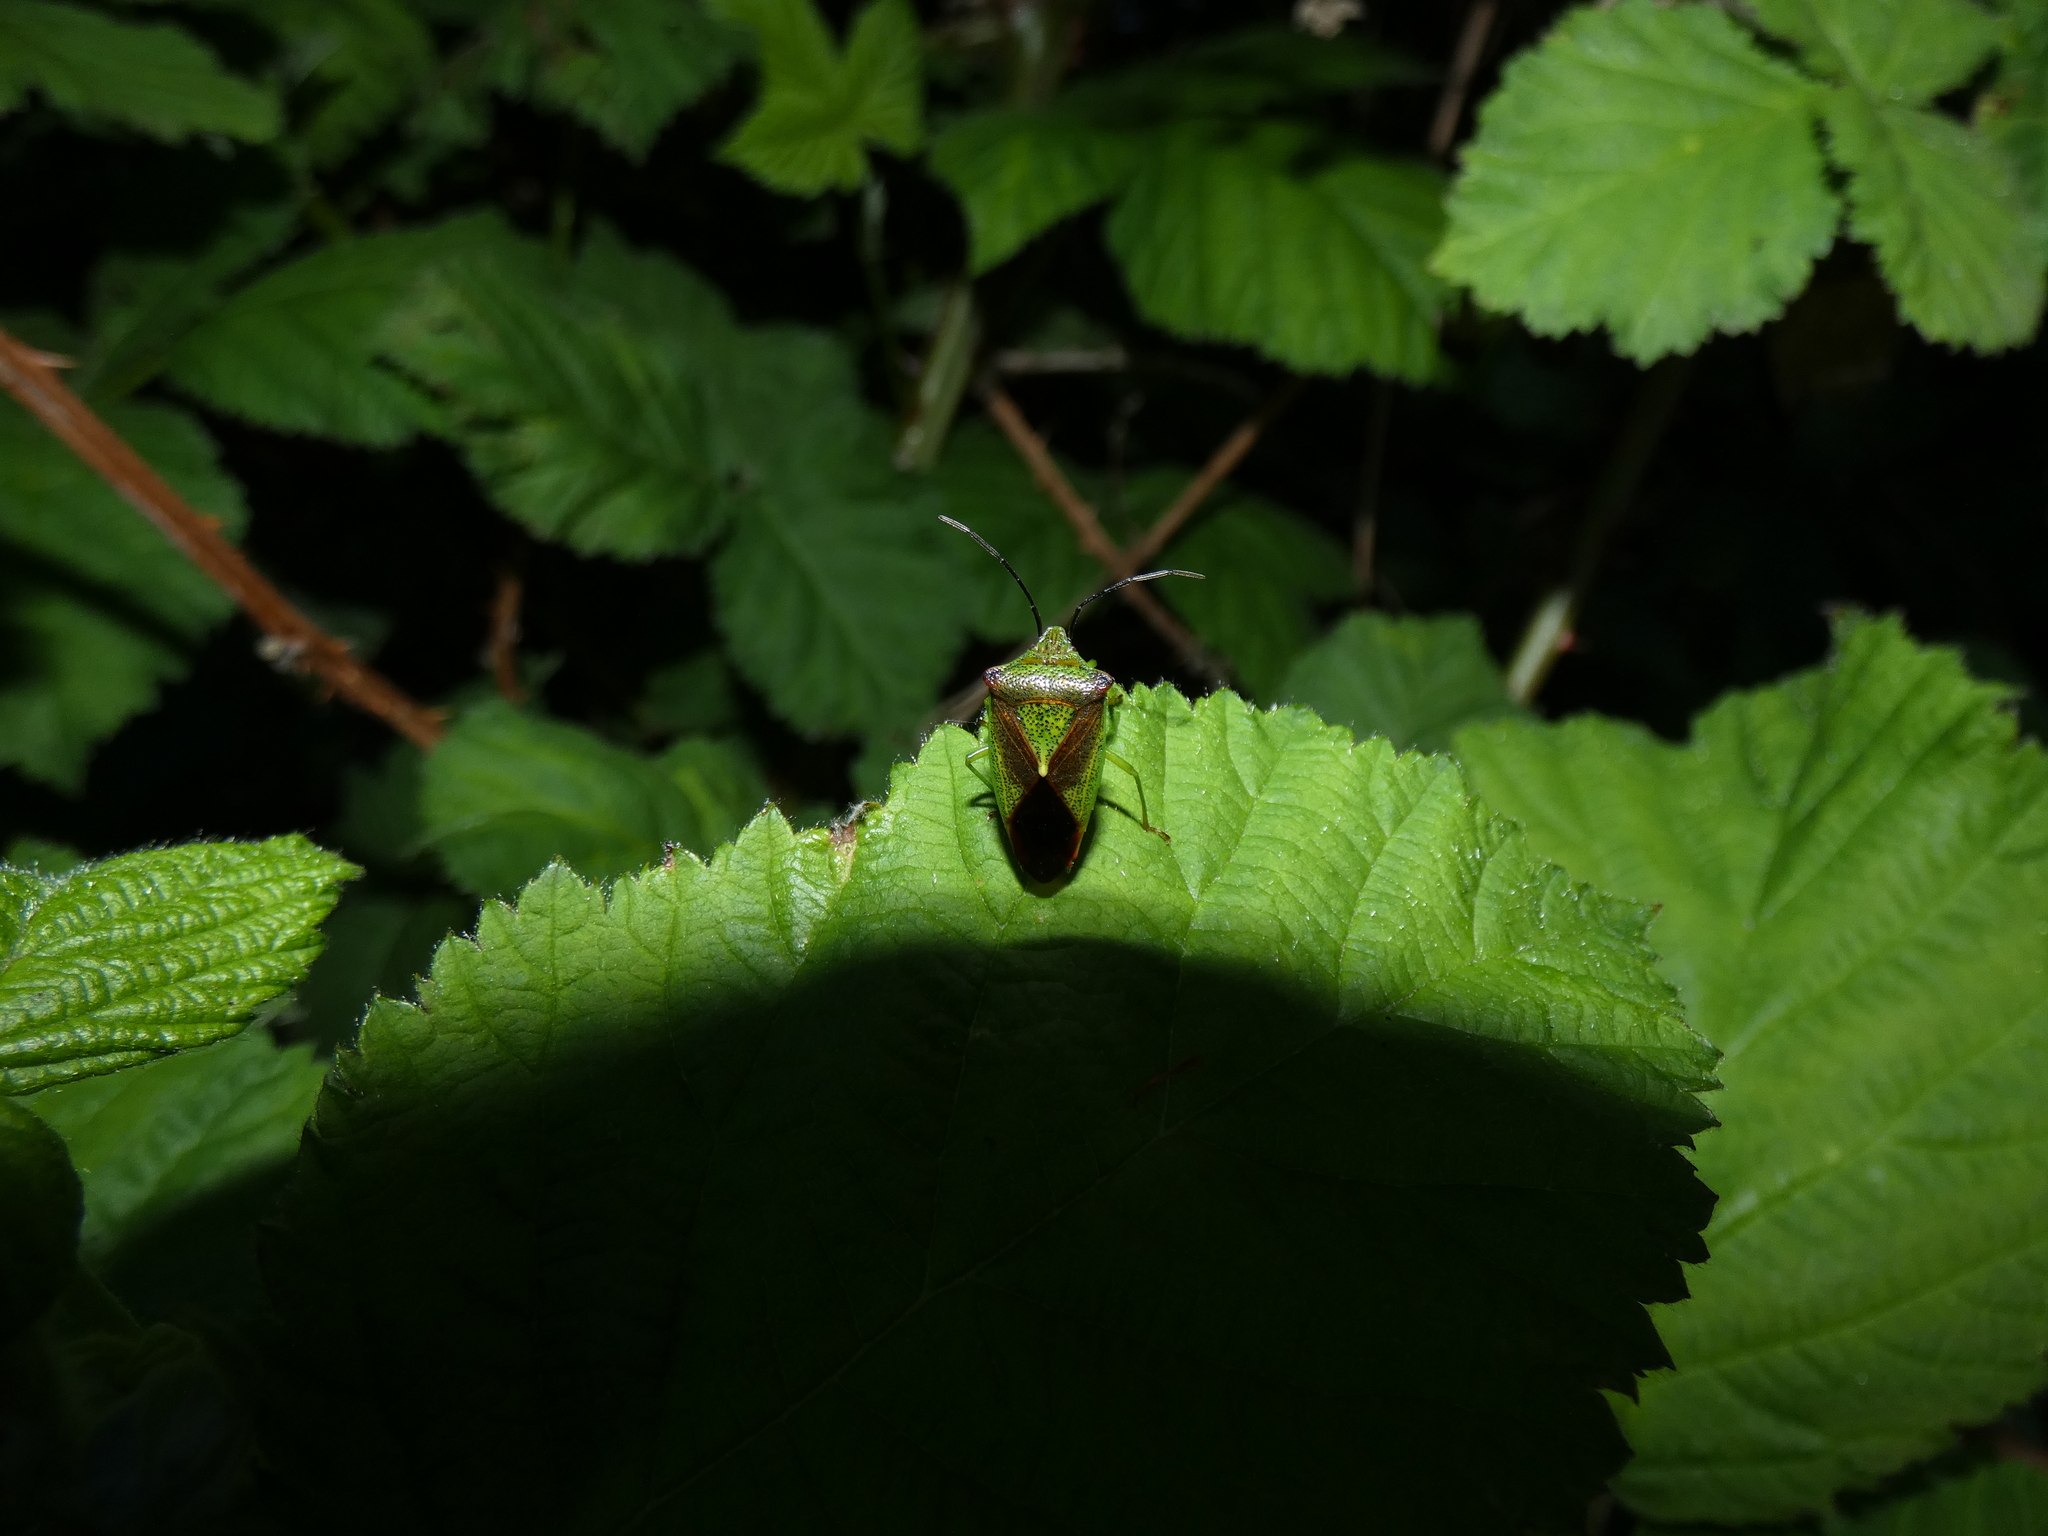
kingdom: Animalia
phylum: Arthropoda
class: Insecta
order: Hemiptera
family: Acanthosomatidae
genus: Acanthosoma
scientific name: Acanthosoma haemorrhoidale
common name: Hawthorn shieldbug
